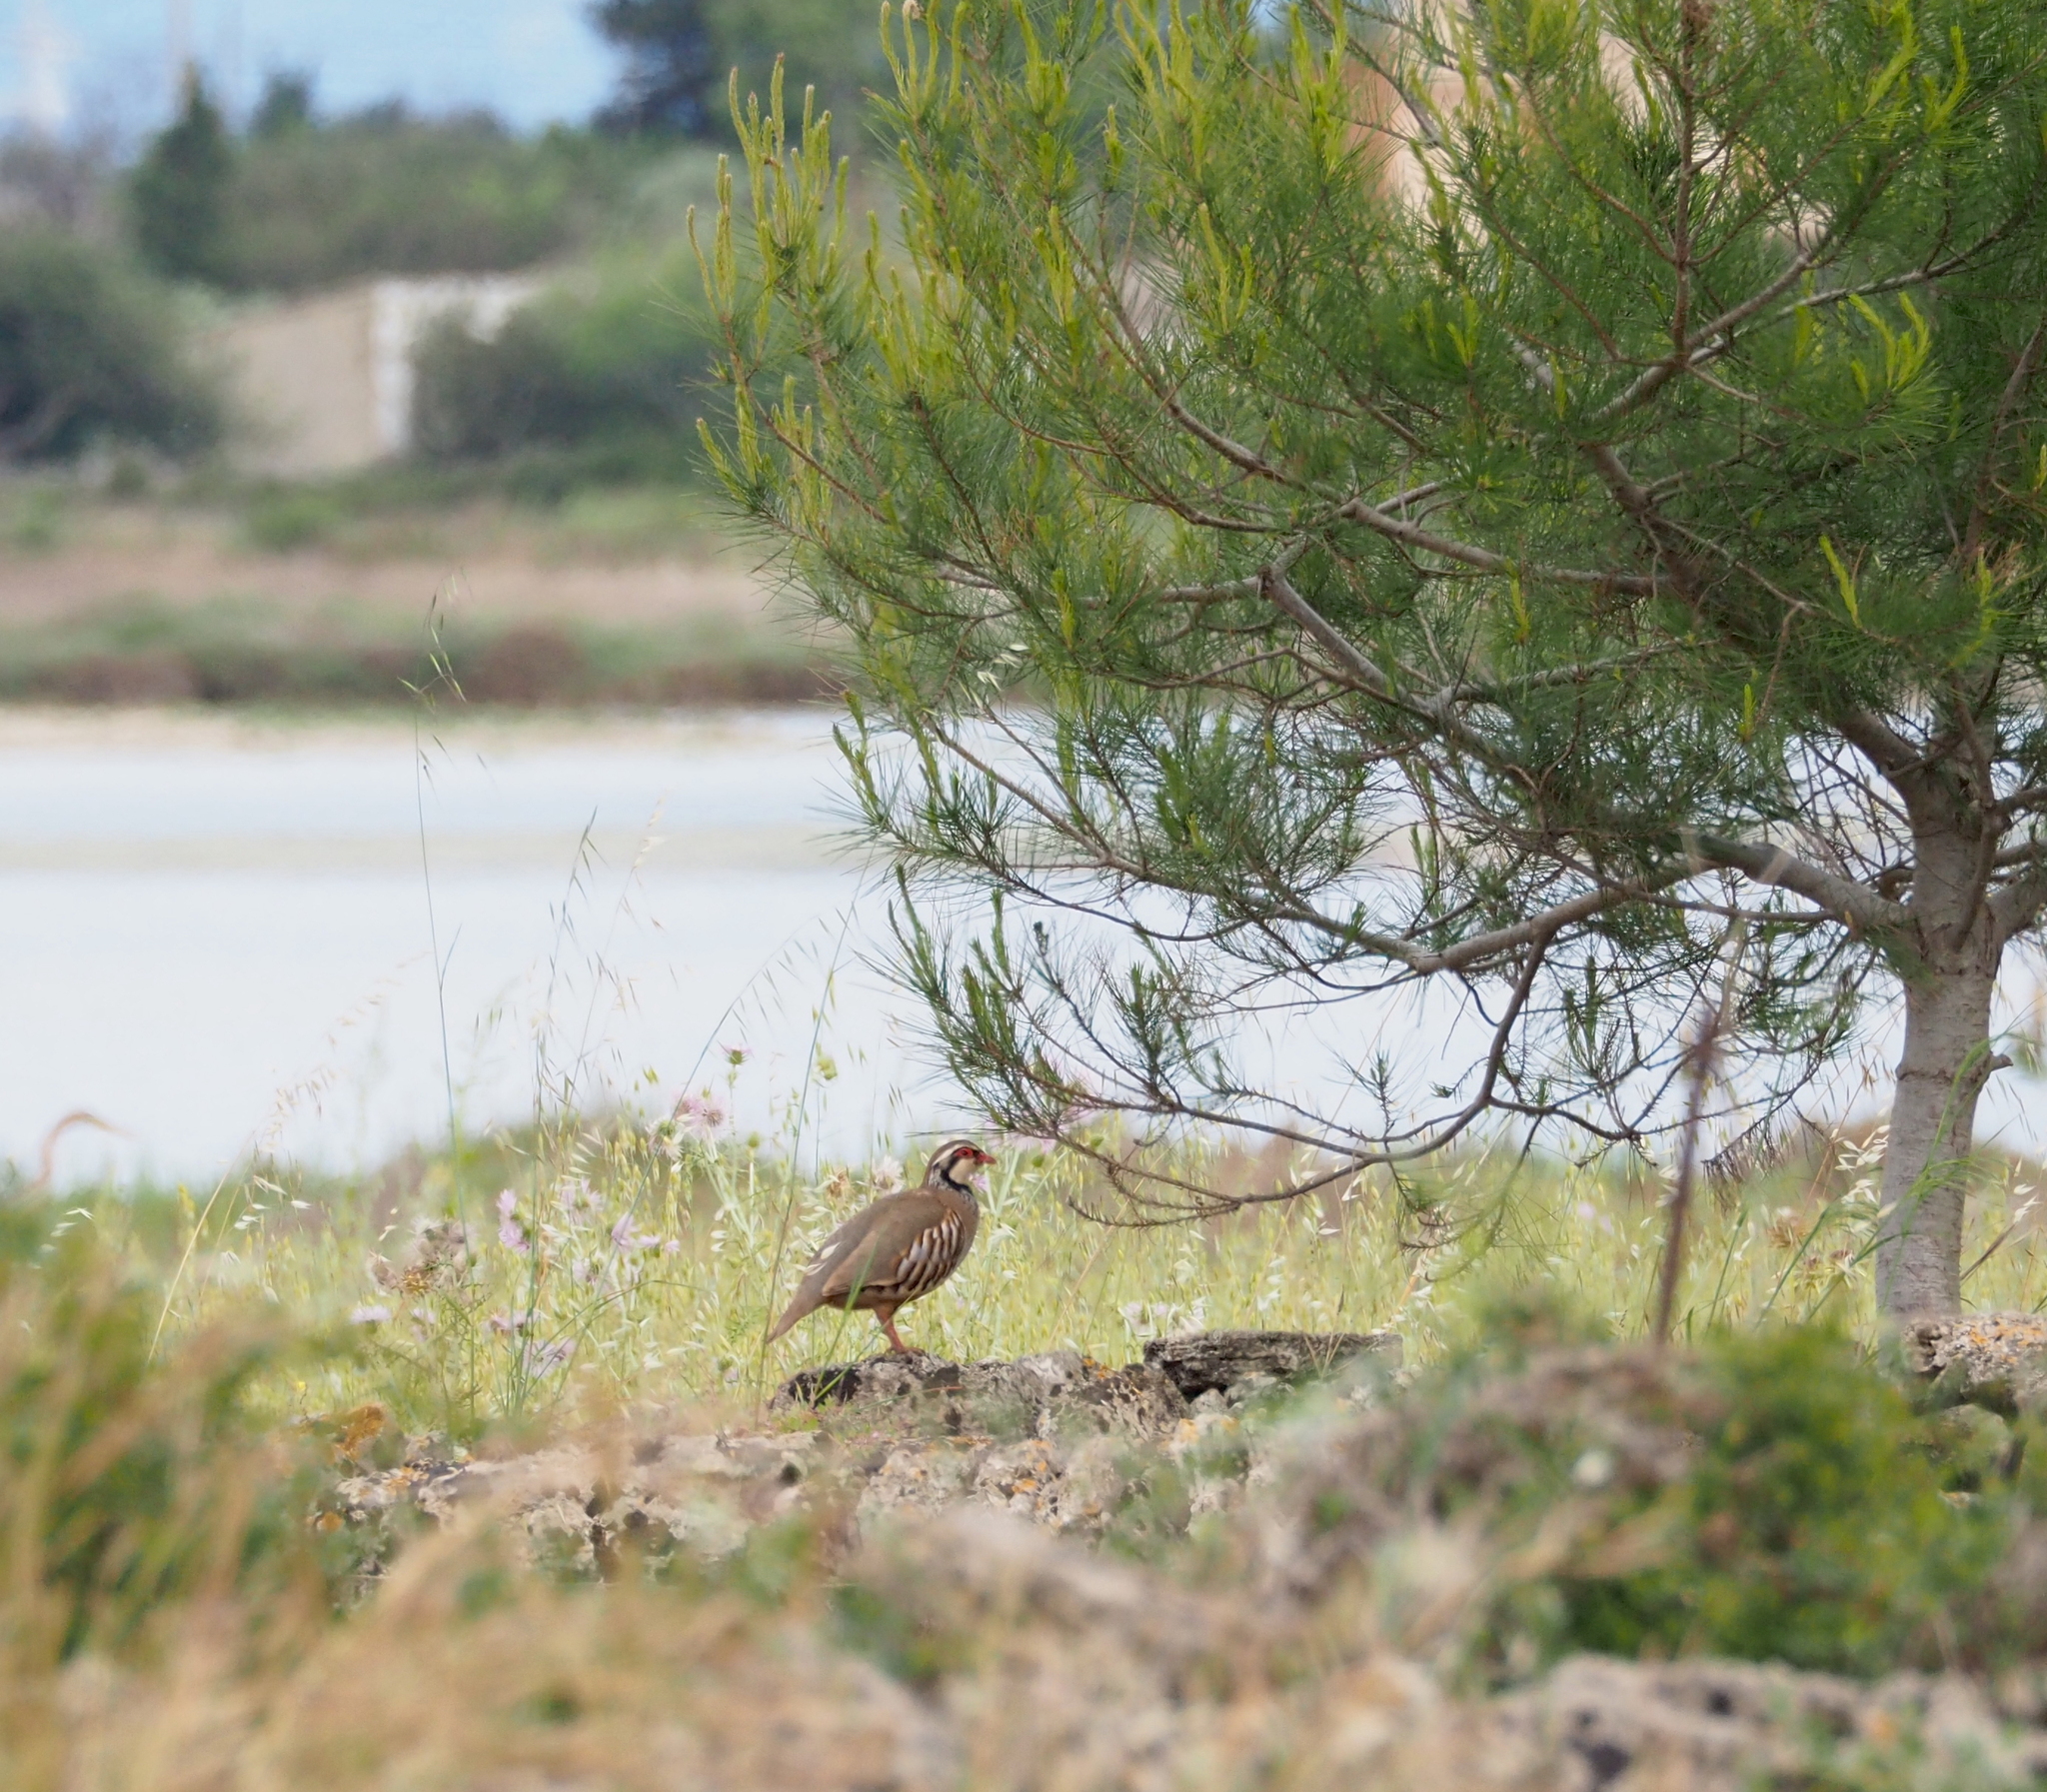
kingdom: Animalia
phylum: Chordata
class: Aves
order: Galliformes
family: Phasianidae
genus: Alectoris
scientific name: Alectoris rufa
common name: Red-legged partridge
